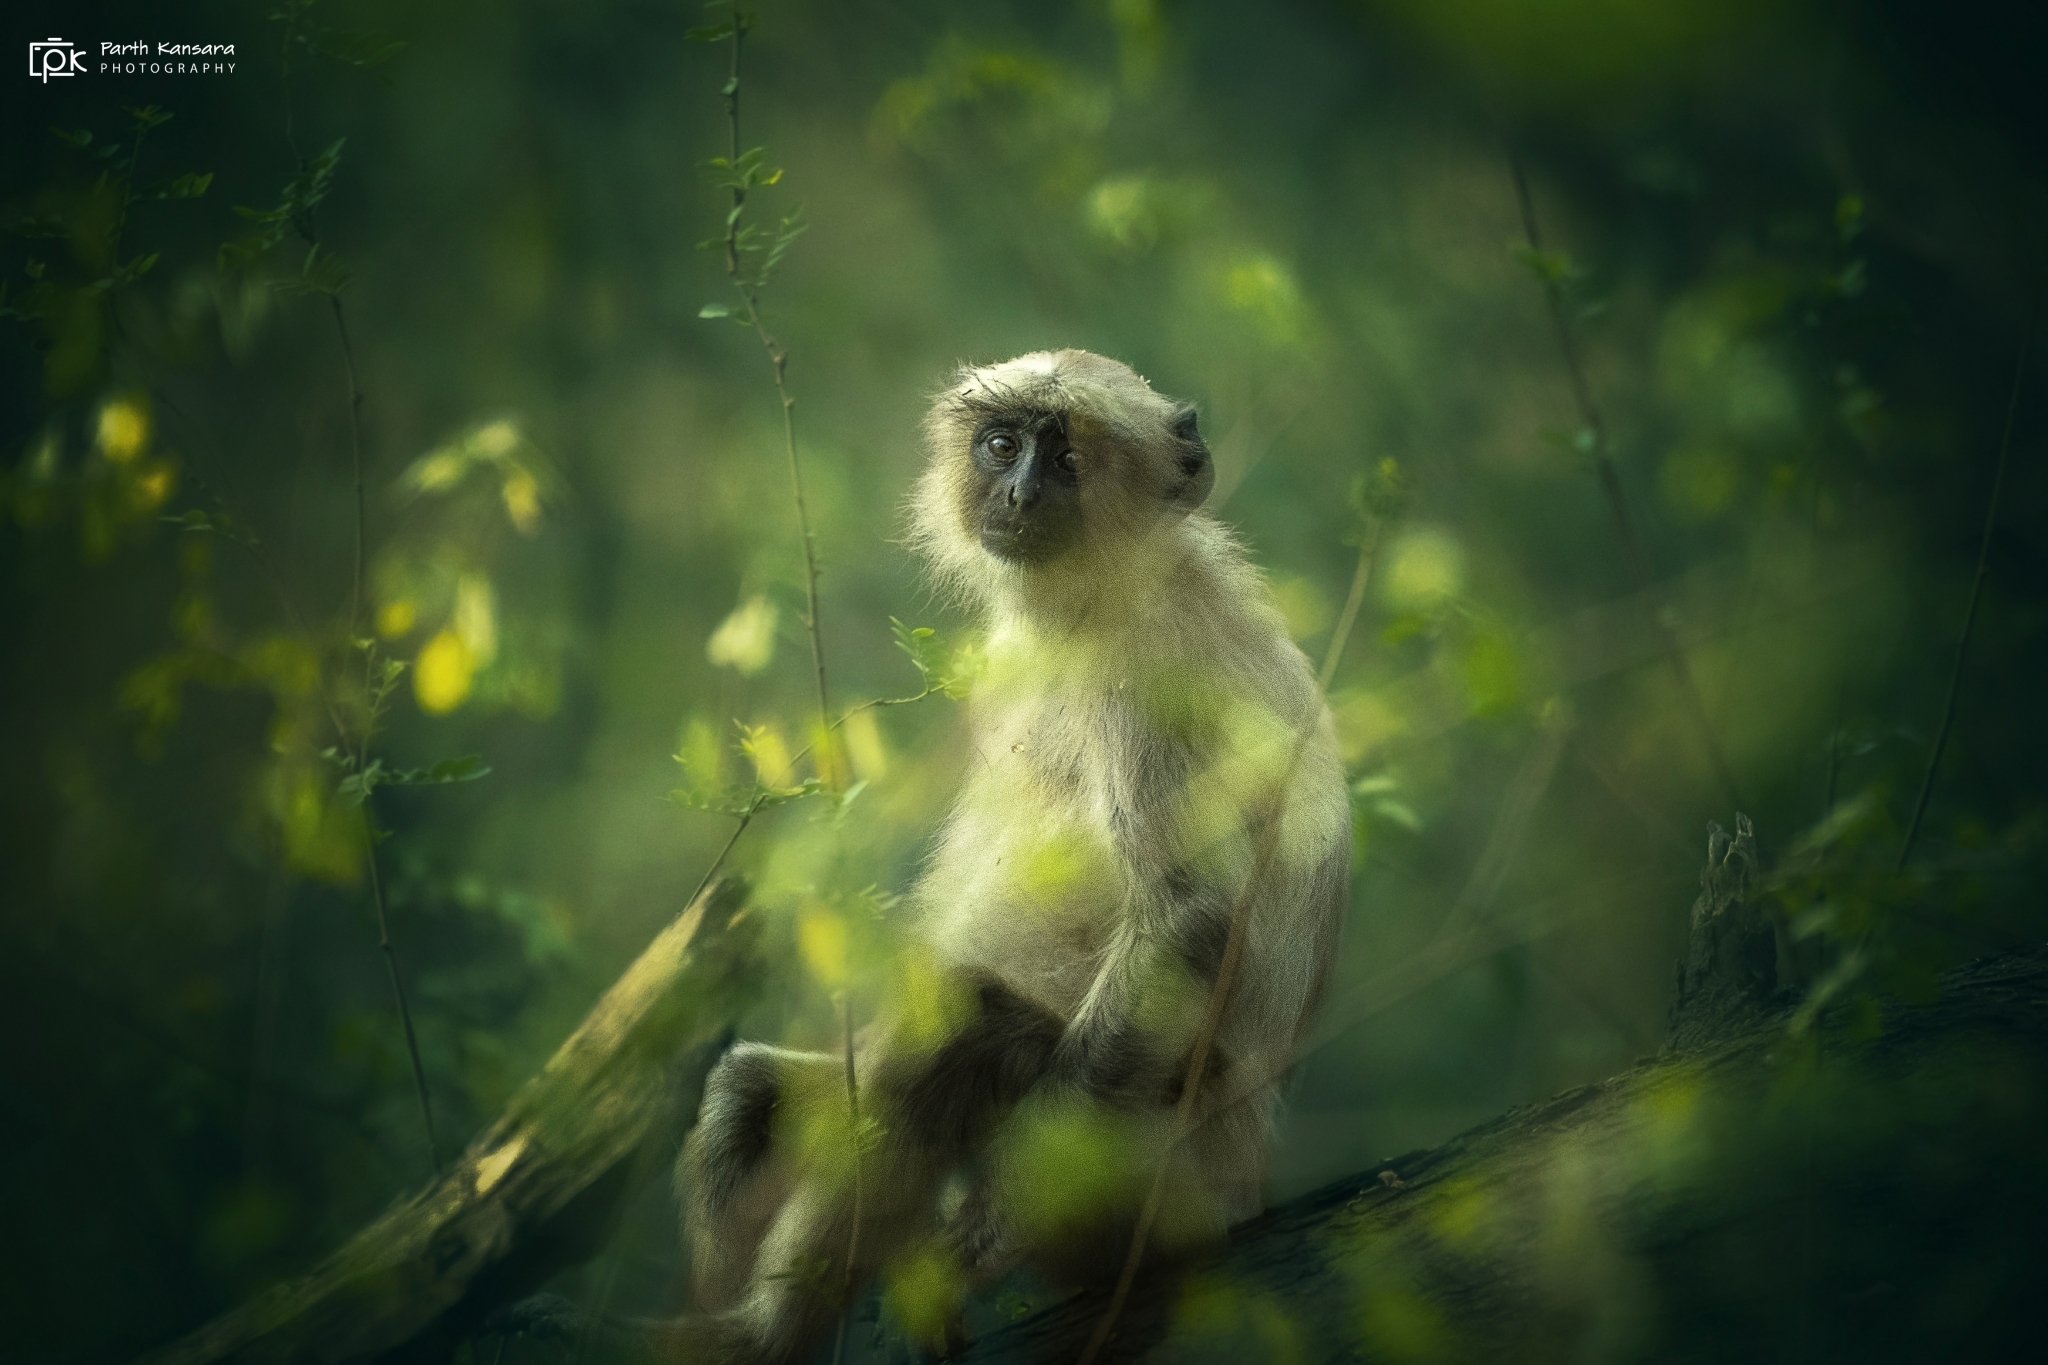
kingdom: Animalia
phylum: Chordata
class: Mammalia
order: Primates
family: Cercopithecidae
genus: Semnopithecus
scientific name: Semnopithecus entellus
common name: Northern plains gray langur
